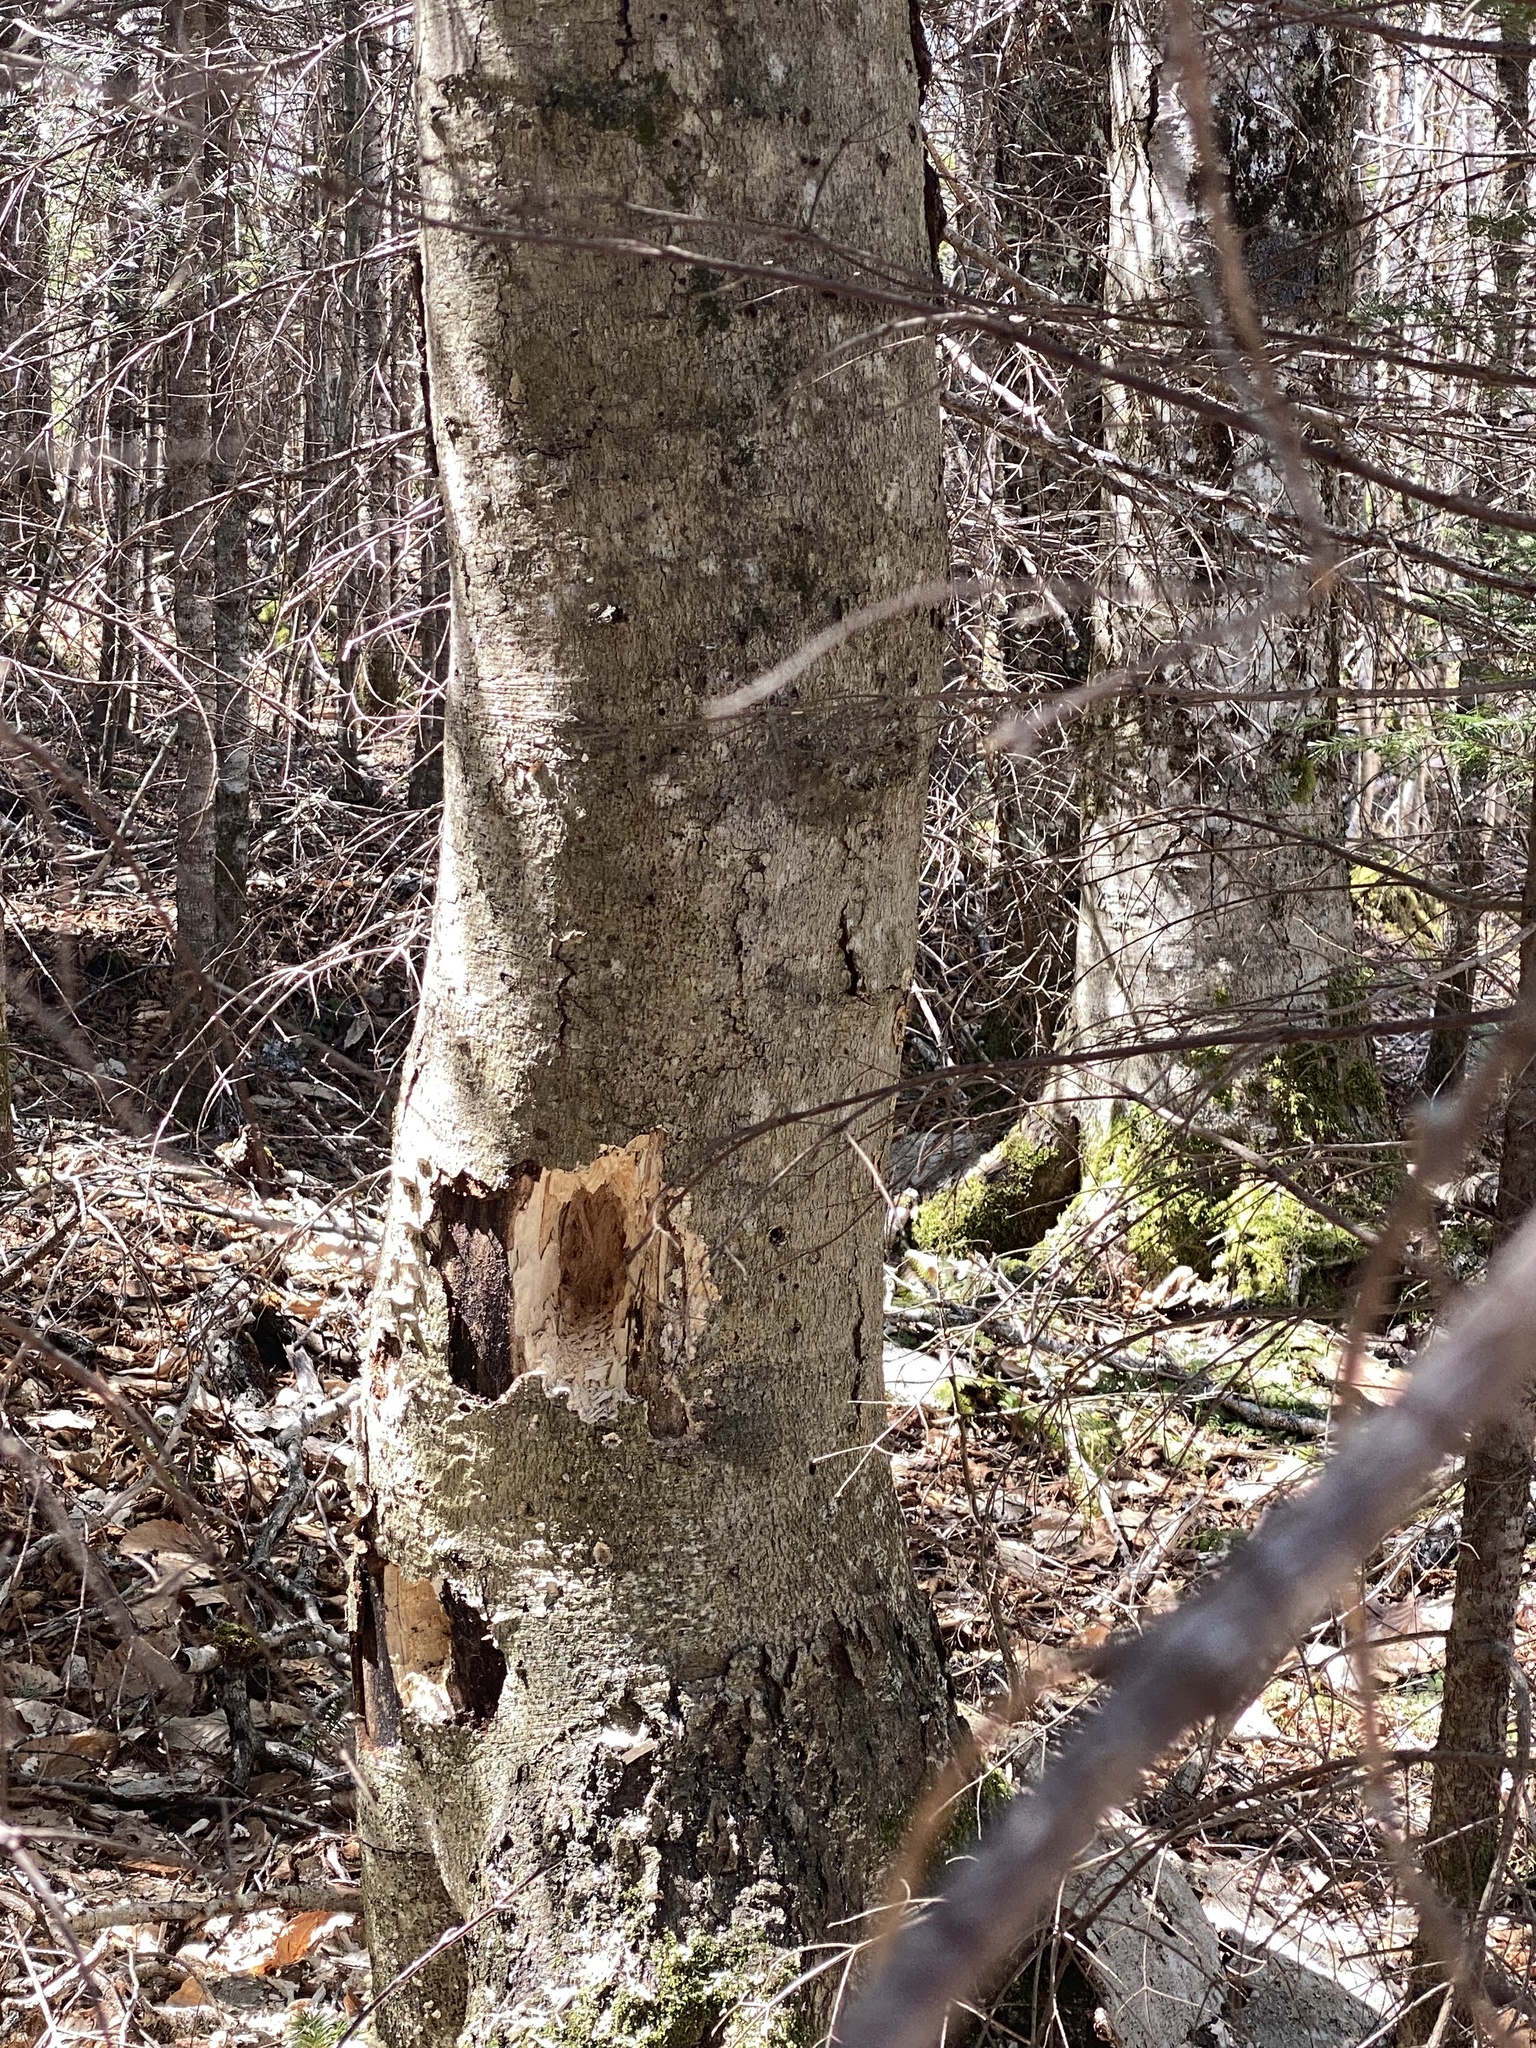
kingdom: Animalia
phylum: Chordata
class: Aves
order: Piciformes
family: Picidae
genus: Dryocopus
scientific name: Dryocopus pileatus
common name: Pileated woodpecker
